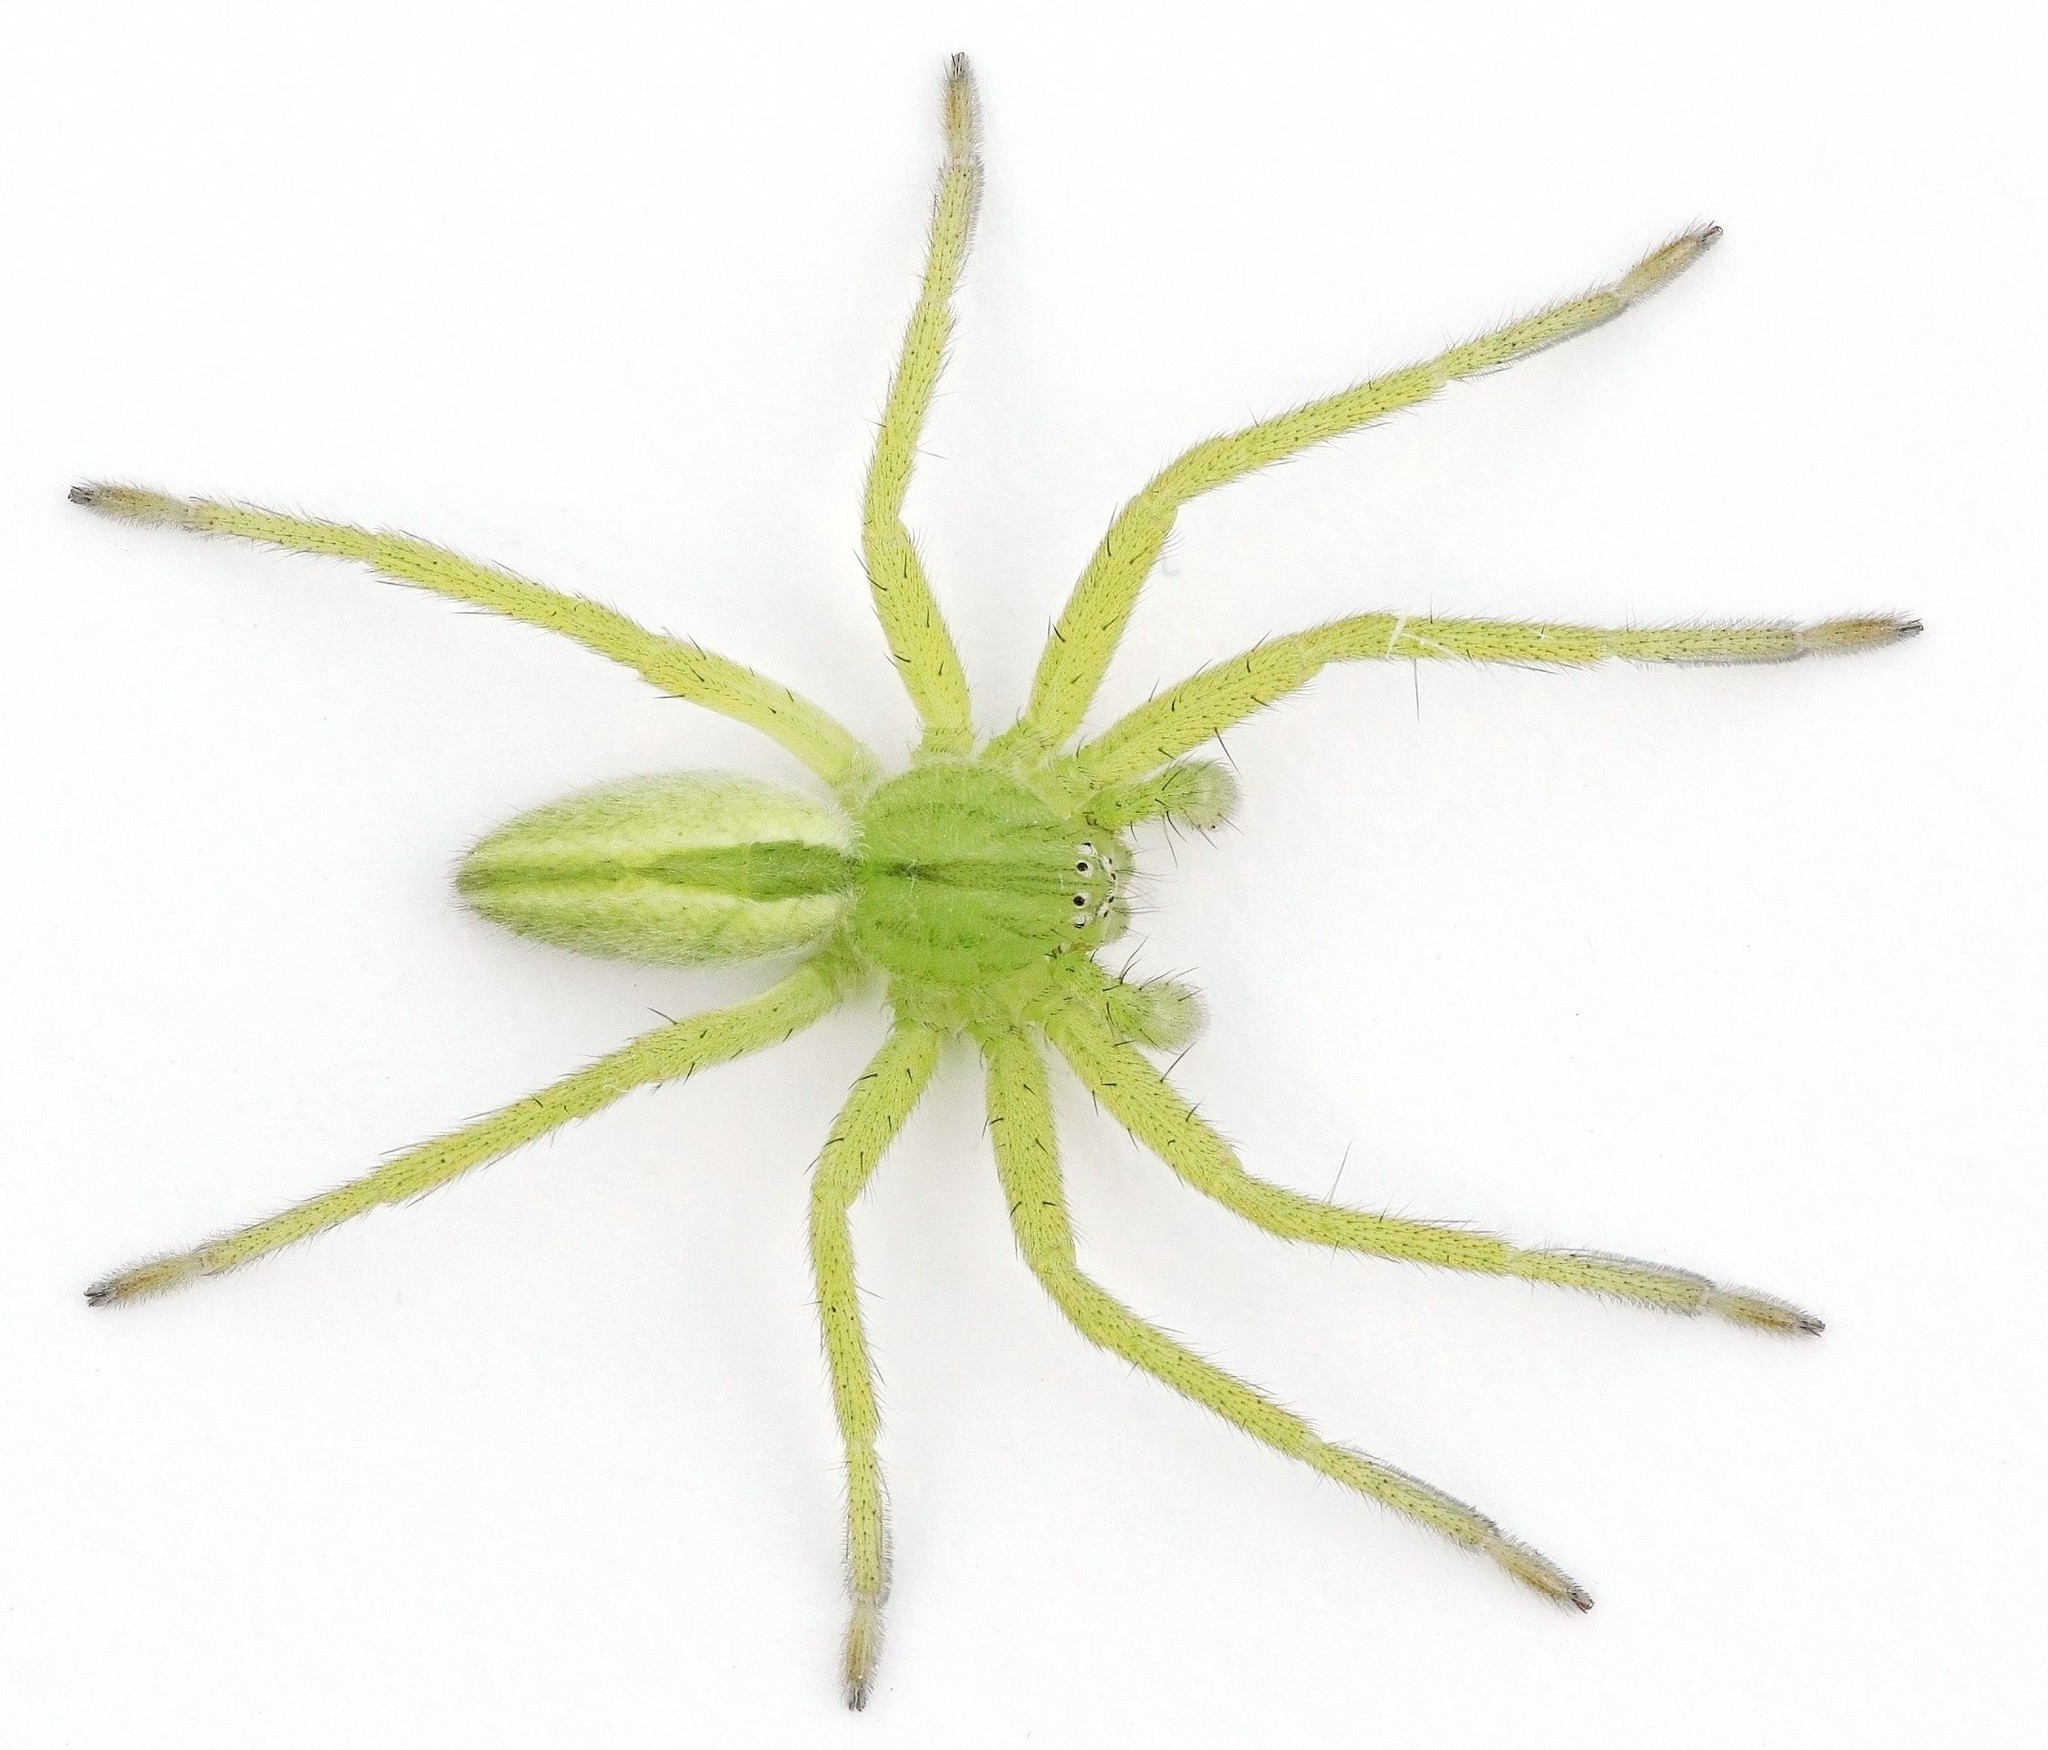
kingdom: Animalia
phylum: Arthropoda
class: Arachnida
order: Araneae
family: Sparassidae
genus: Micrommata
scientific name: Micrommata virescens
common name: Green spider
